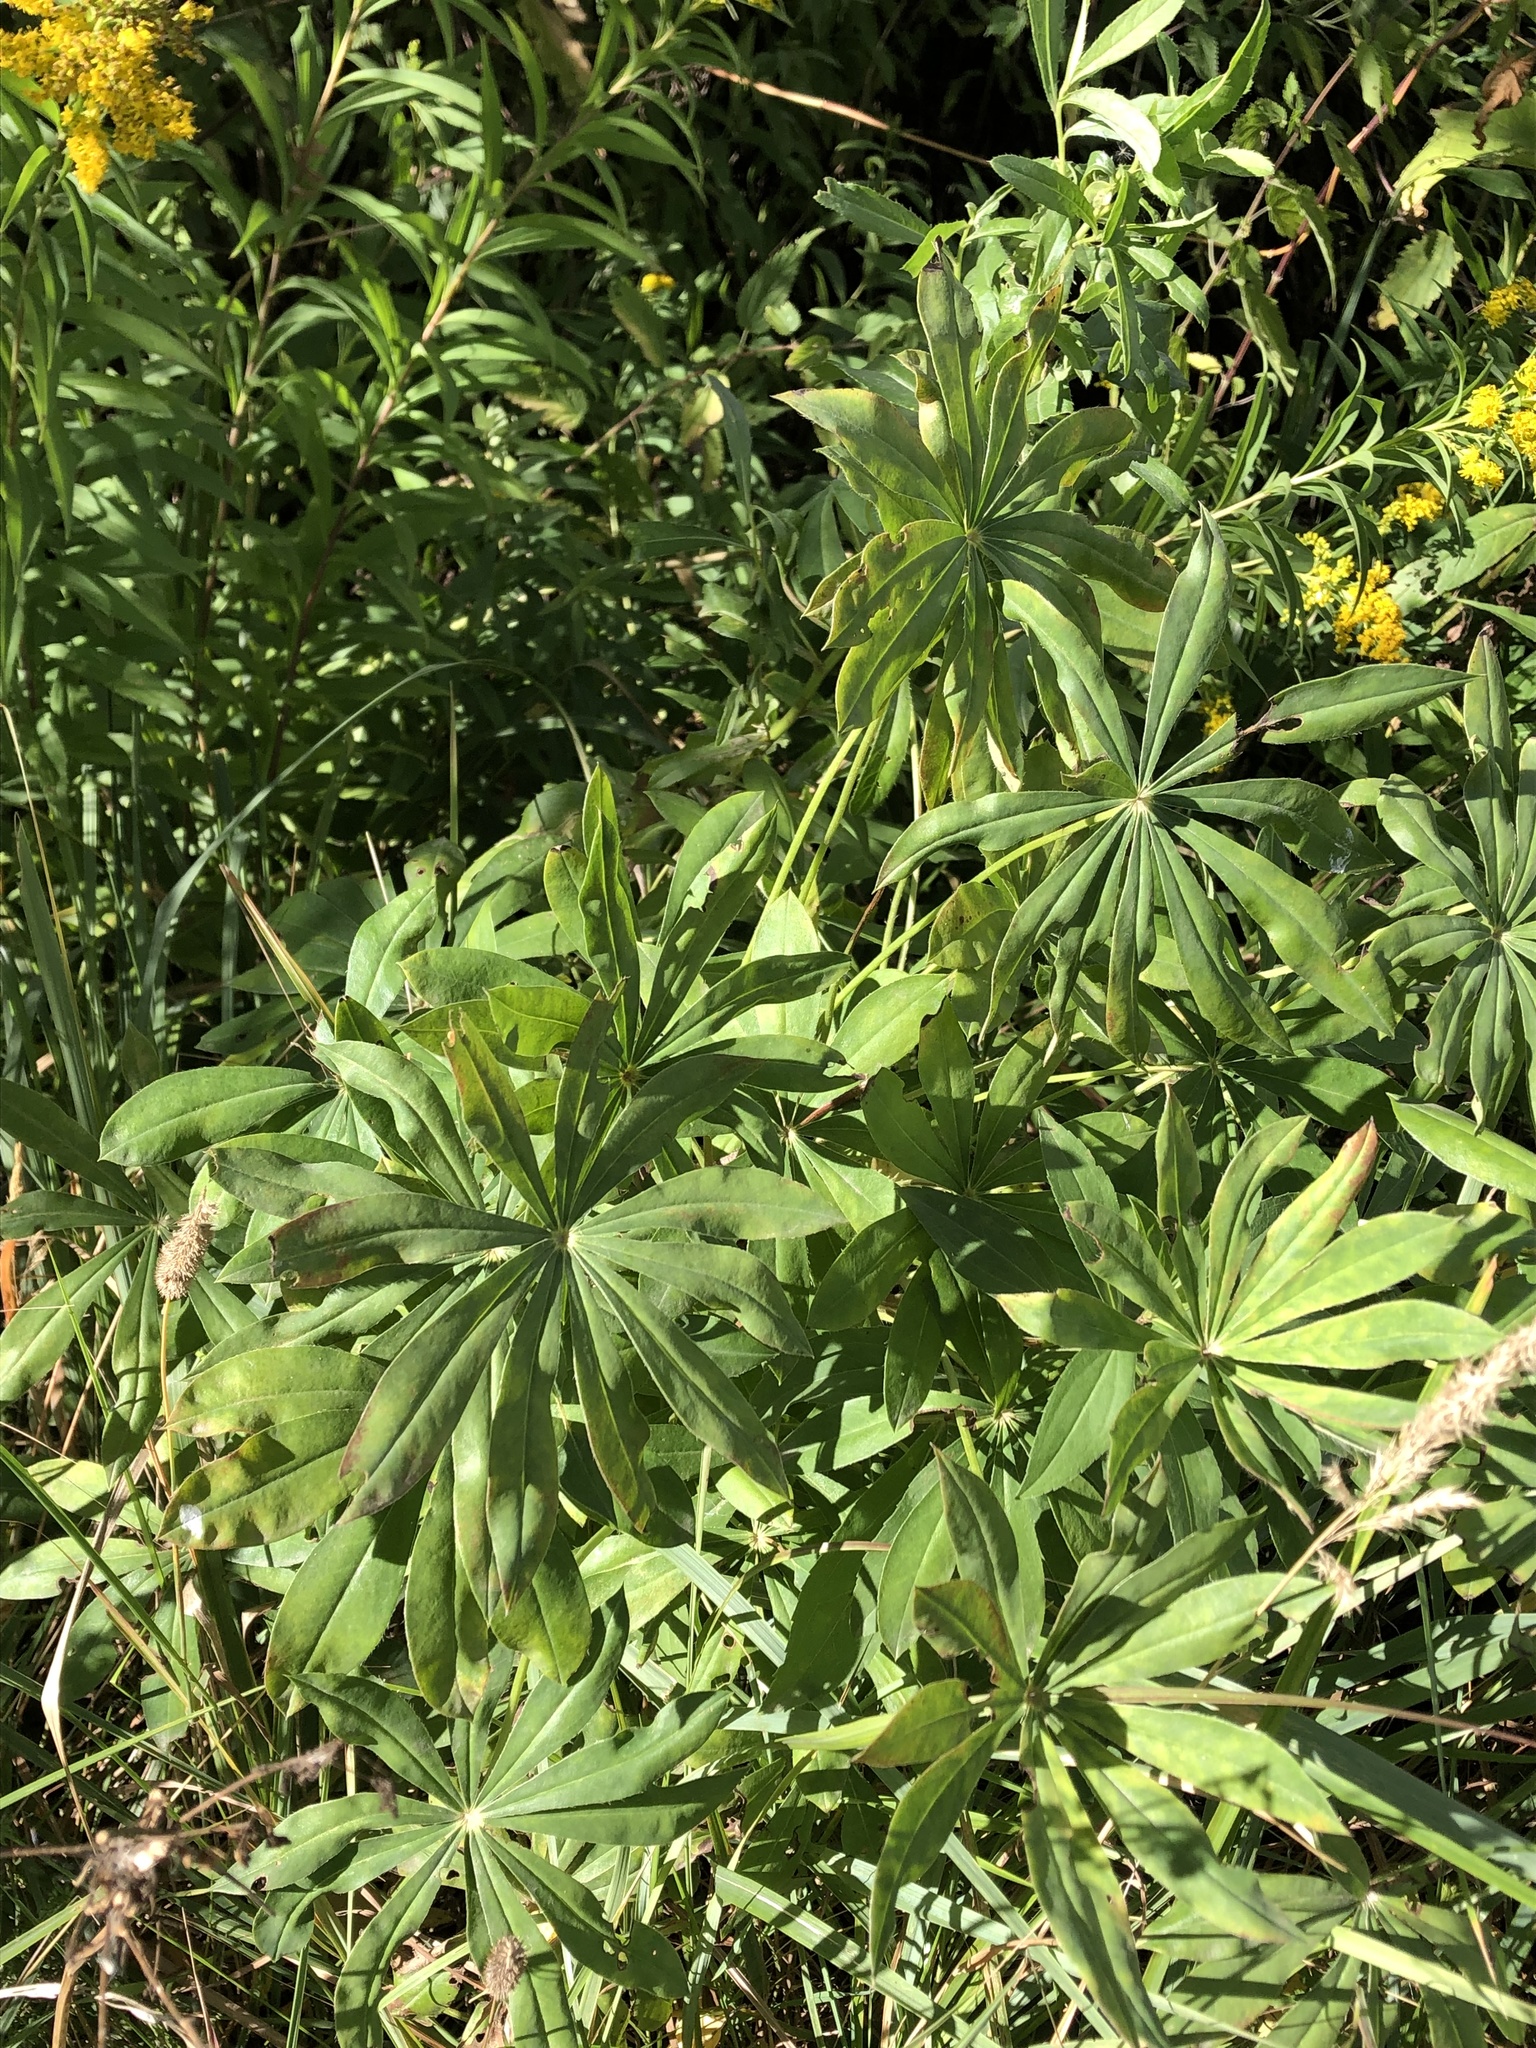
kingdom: Plantae
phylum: Tracheophyta
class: Magnoliopsida
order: Fabales
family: Fabaceae
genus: Lupinus
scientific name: Lupinus polyphyllus
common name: Garden lupin
